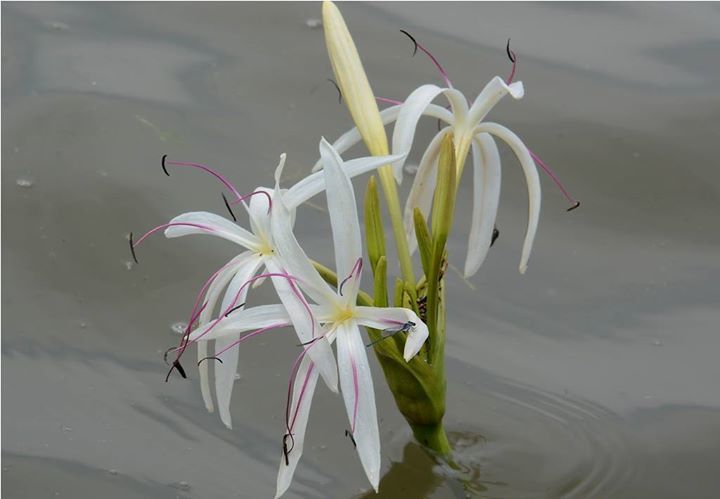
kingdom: Plantae
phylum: Tracheophyta
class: Liliopsida
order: Asparagales
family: Amaryllidaceae
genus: Crinum
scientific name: Crinum bulbispermum
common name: Hardy swamplily
